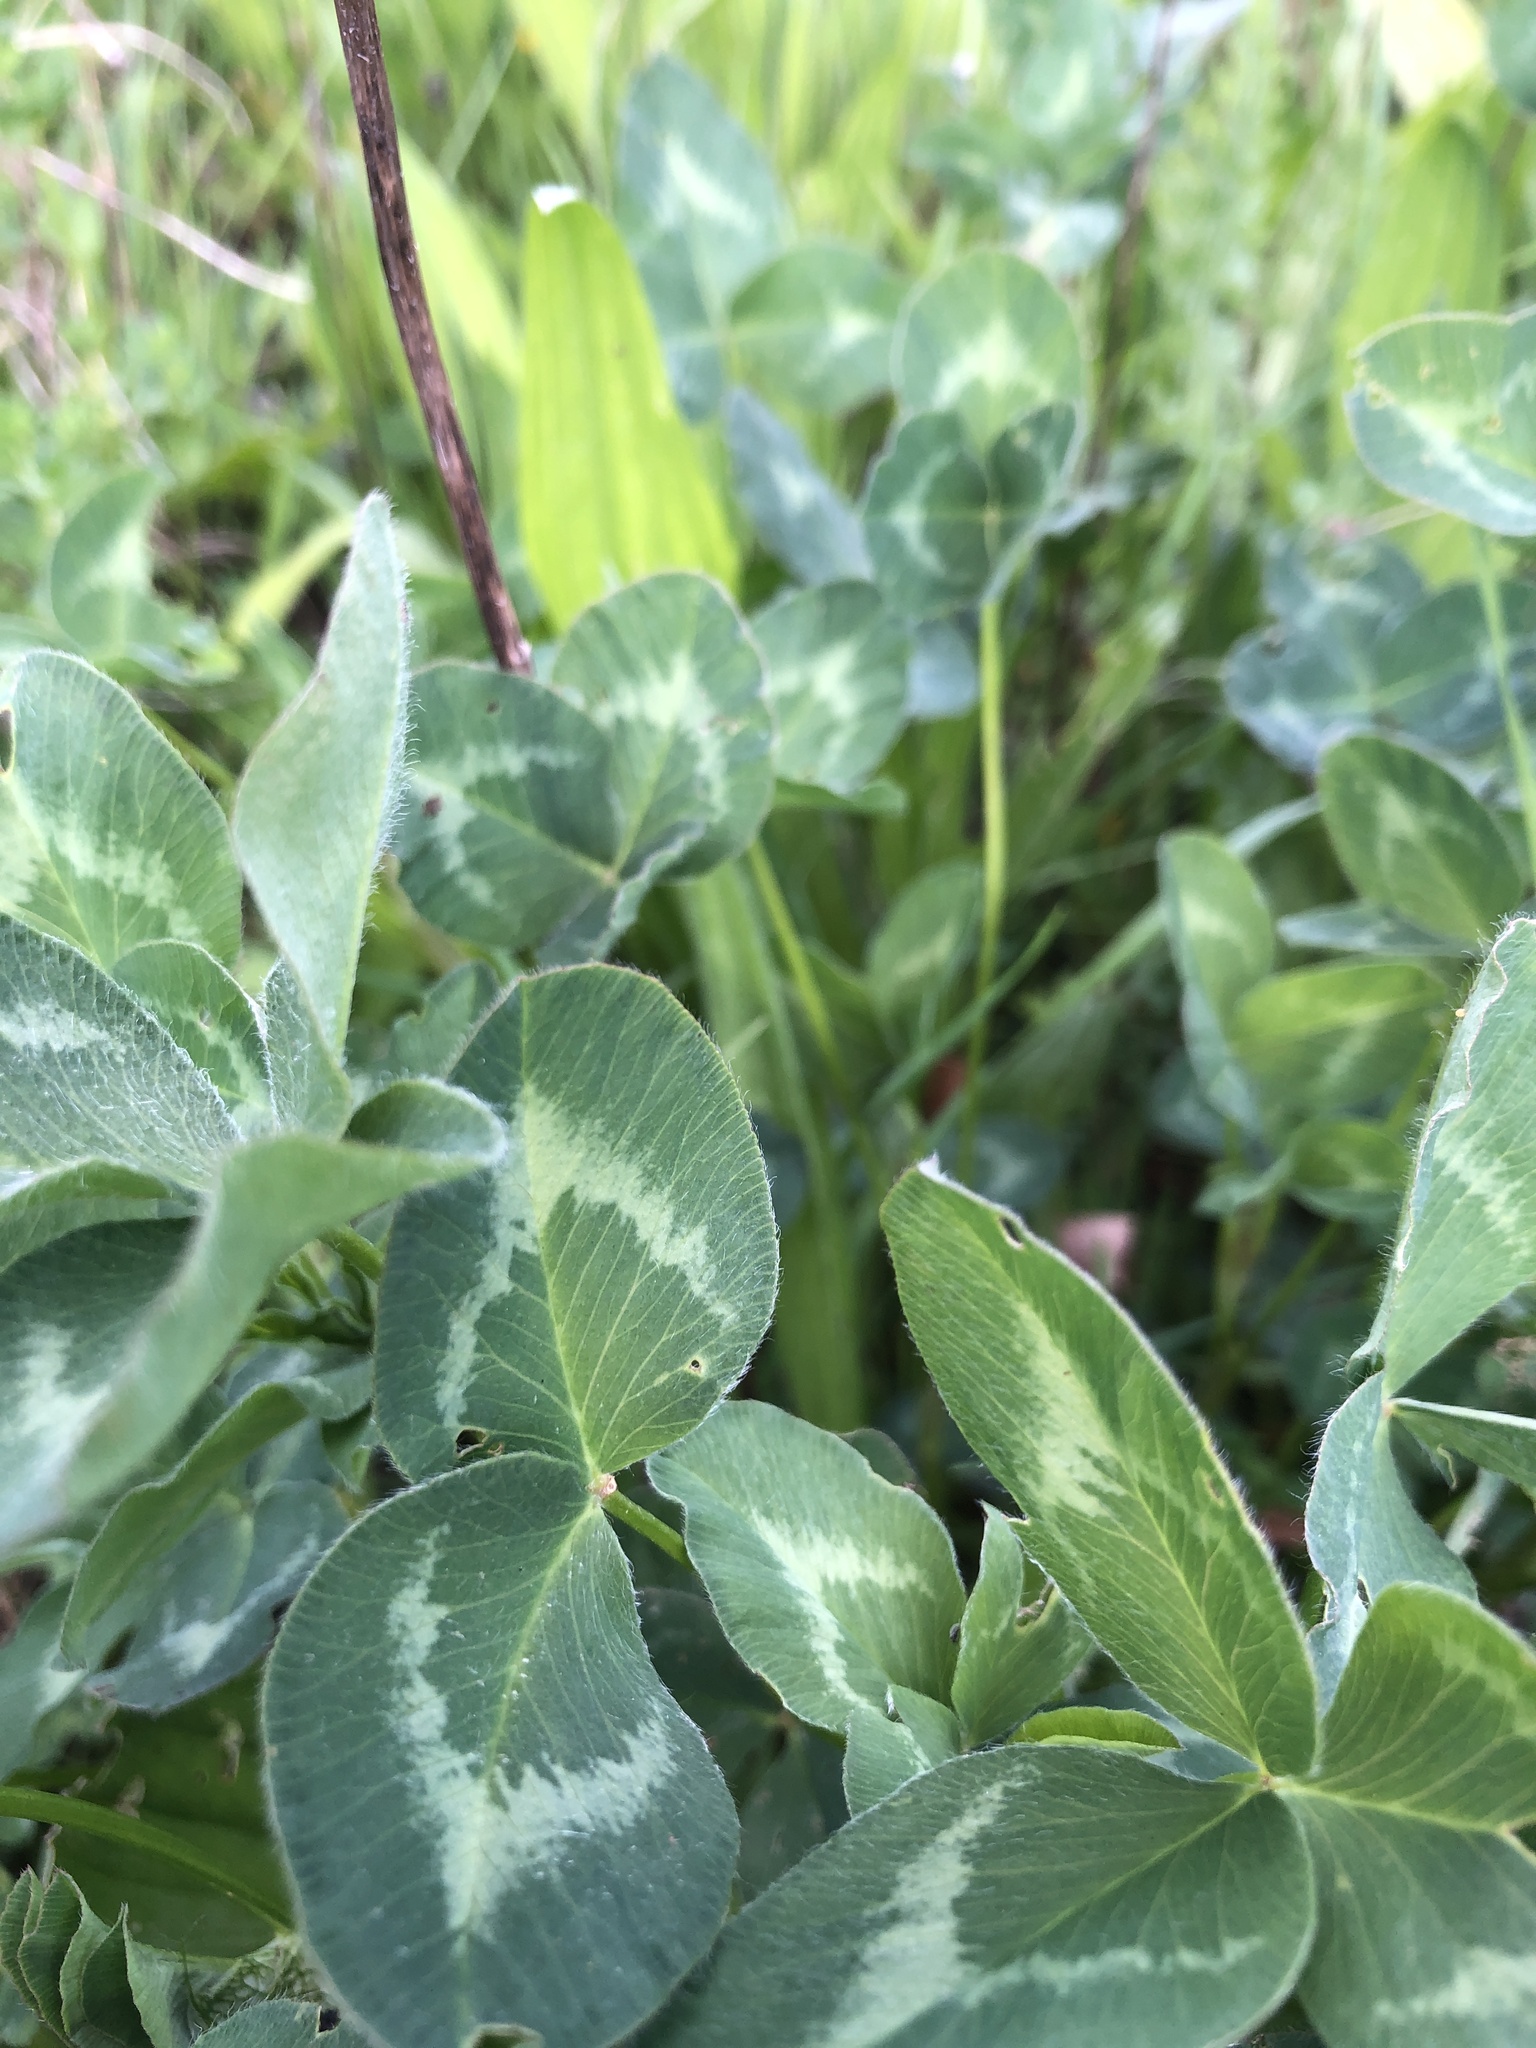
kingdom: Plantae
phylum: Tracheophyta
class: Magnoliopsida
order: Fabales
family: Fabaceae
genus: Trifolium
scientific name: Trifolium pratense
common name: Red clover
